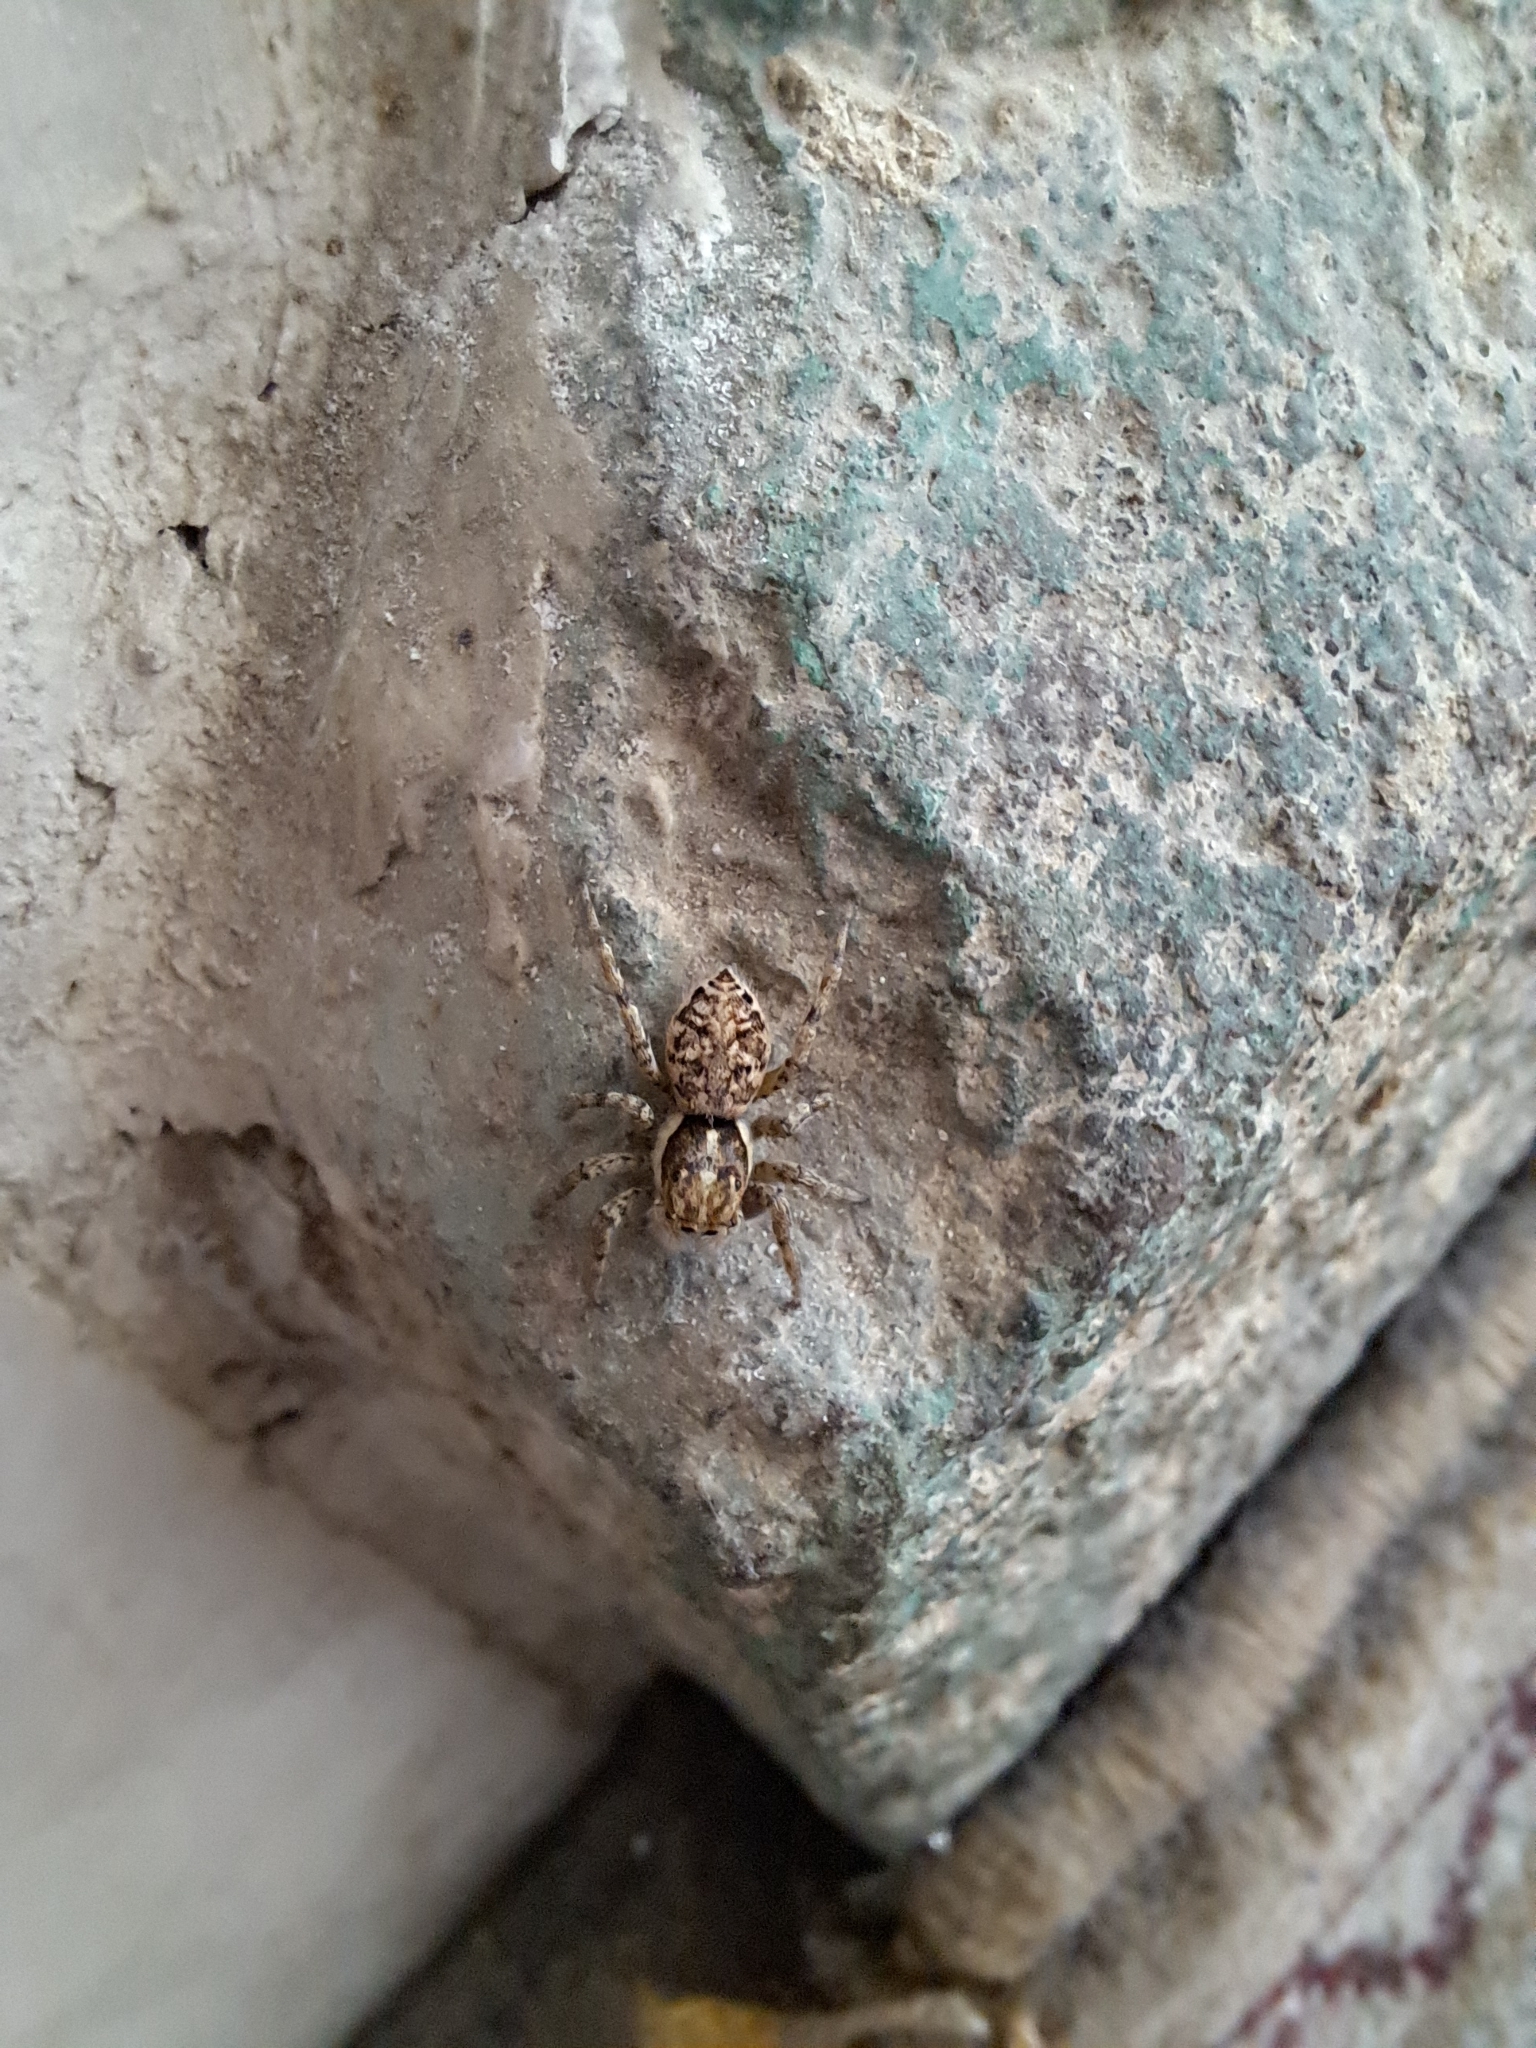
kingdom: Animalia
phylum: Arthropoda
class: Arachnida
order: Araneae
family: Salticidae
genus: Menemerus
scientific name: Menemerus semilimbatus
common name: Jumping spider
